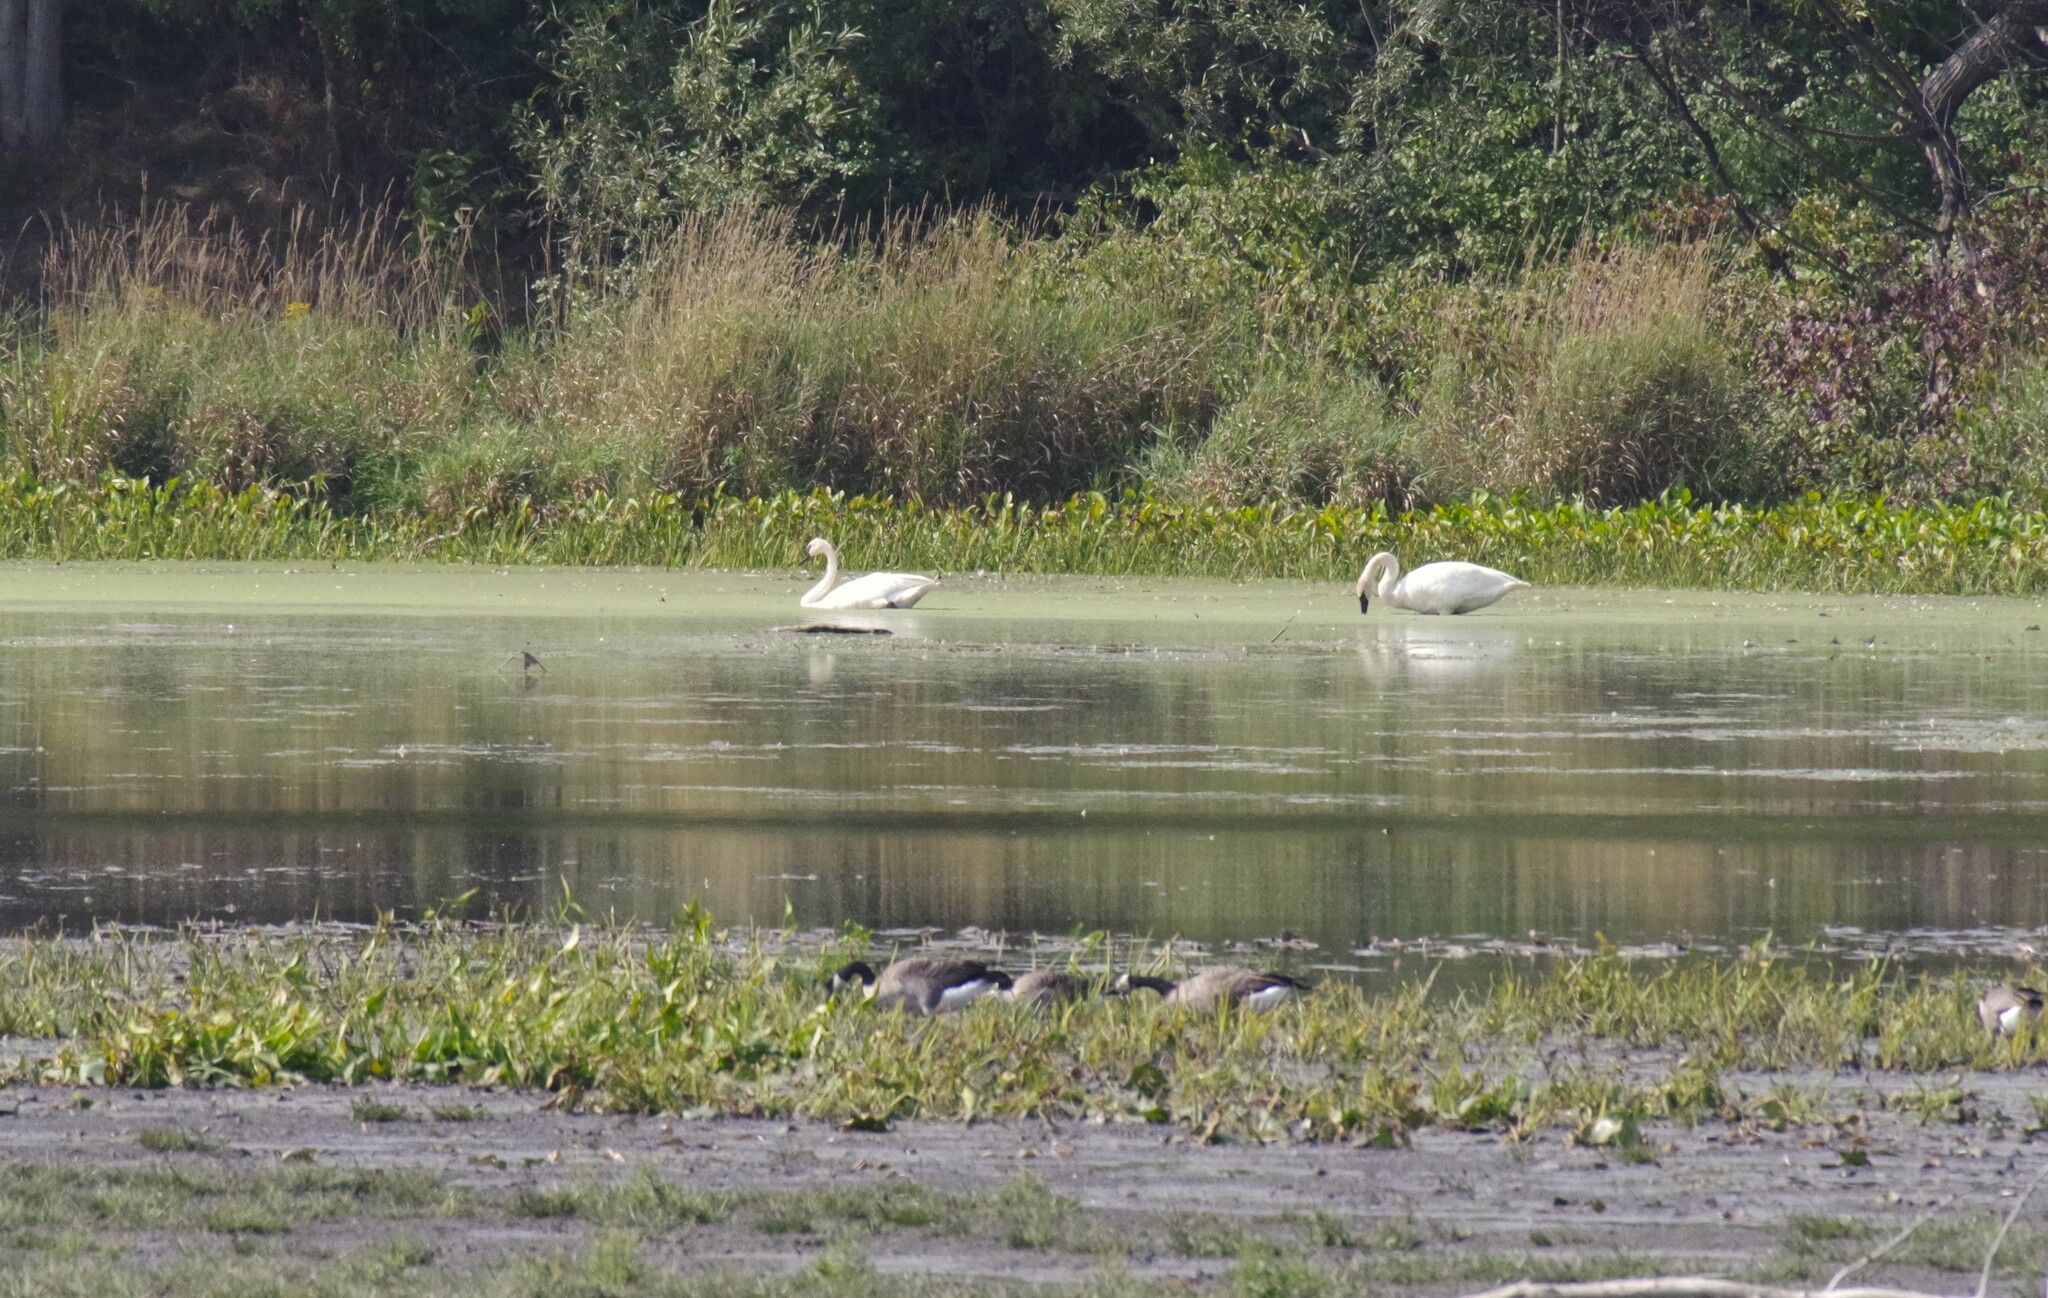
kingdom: Animalia
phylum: Chordata
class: Aves
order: Anseriformes
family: Anatidae
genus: Cygnus
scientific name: Cygnus buccinator
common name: Trumpeter swan
